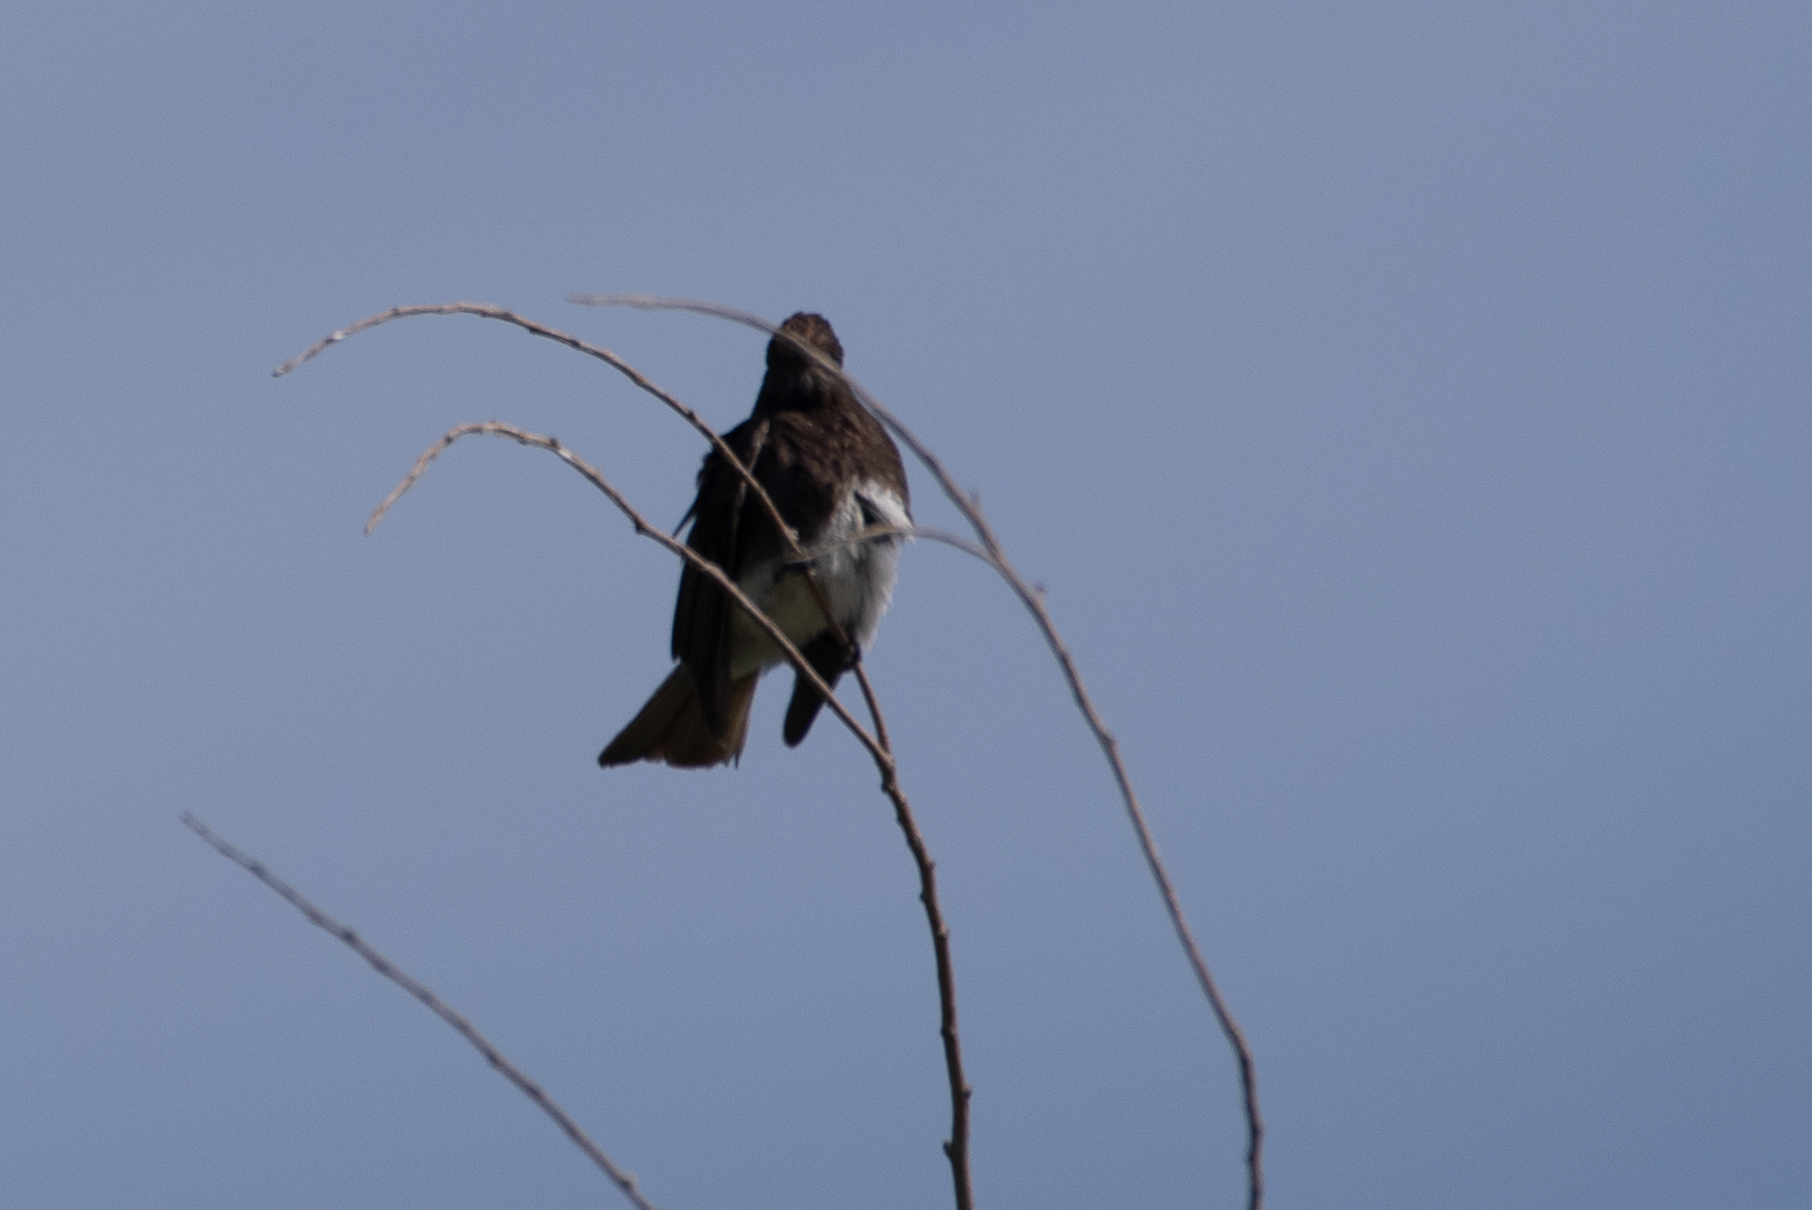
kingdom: Animalia
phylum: Chordata
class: Aves
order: Passeriformes
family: Tyrannidae
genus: Sayornis
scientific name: Sayornis nigricans
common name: Black phoebe
